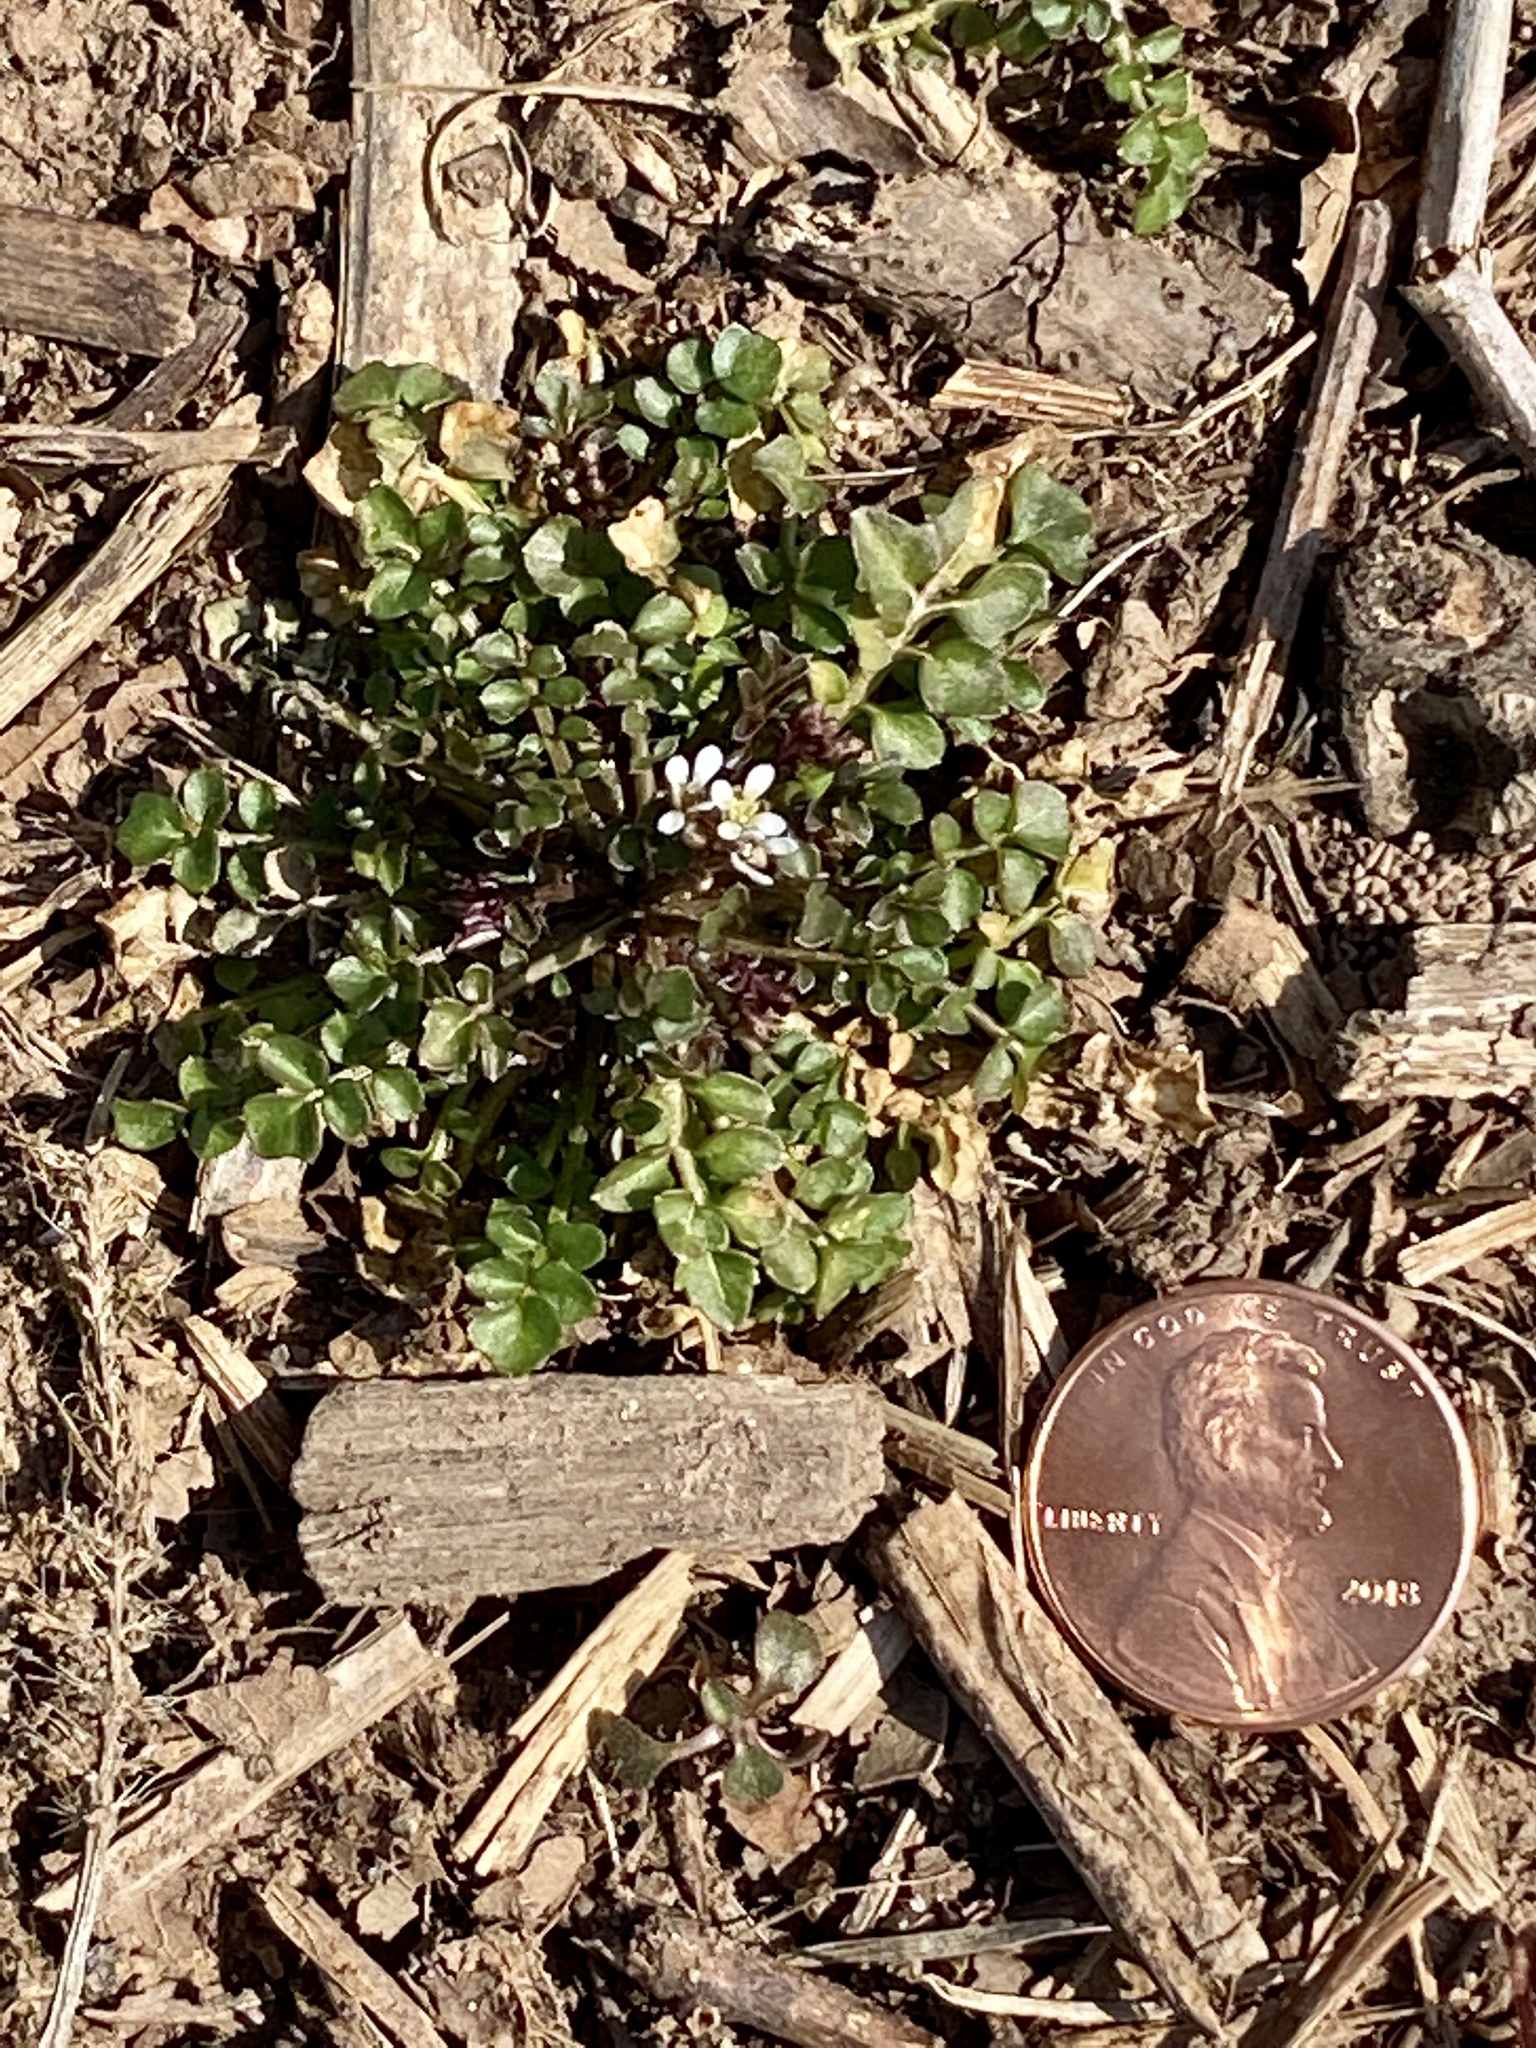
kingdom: Plantae
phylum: Tracheophyta
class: Magnoliopsida
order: Brassicales
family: Brassicaceae
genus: Cardamine
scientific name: Cardamine hirsuta
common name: Hairy bittercress
